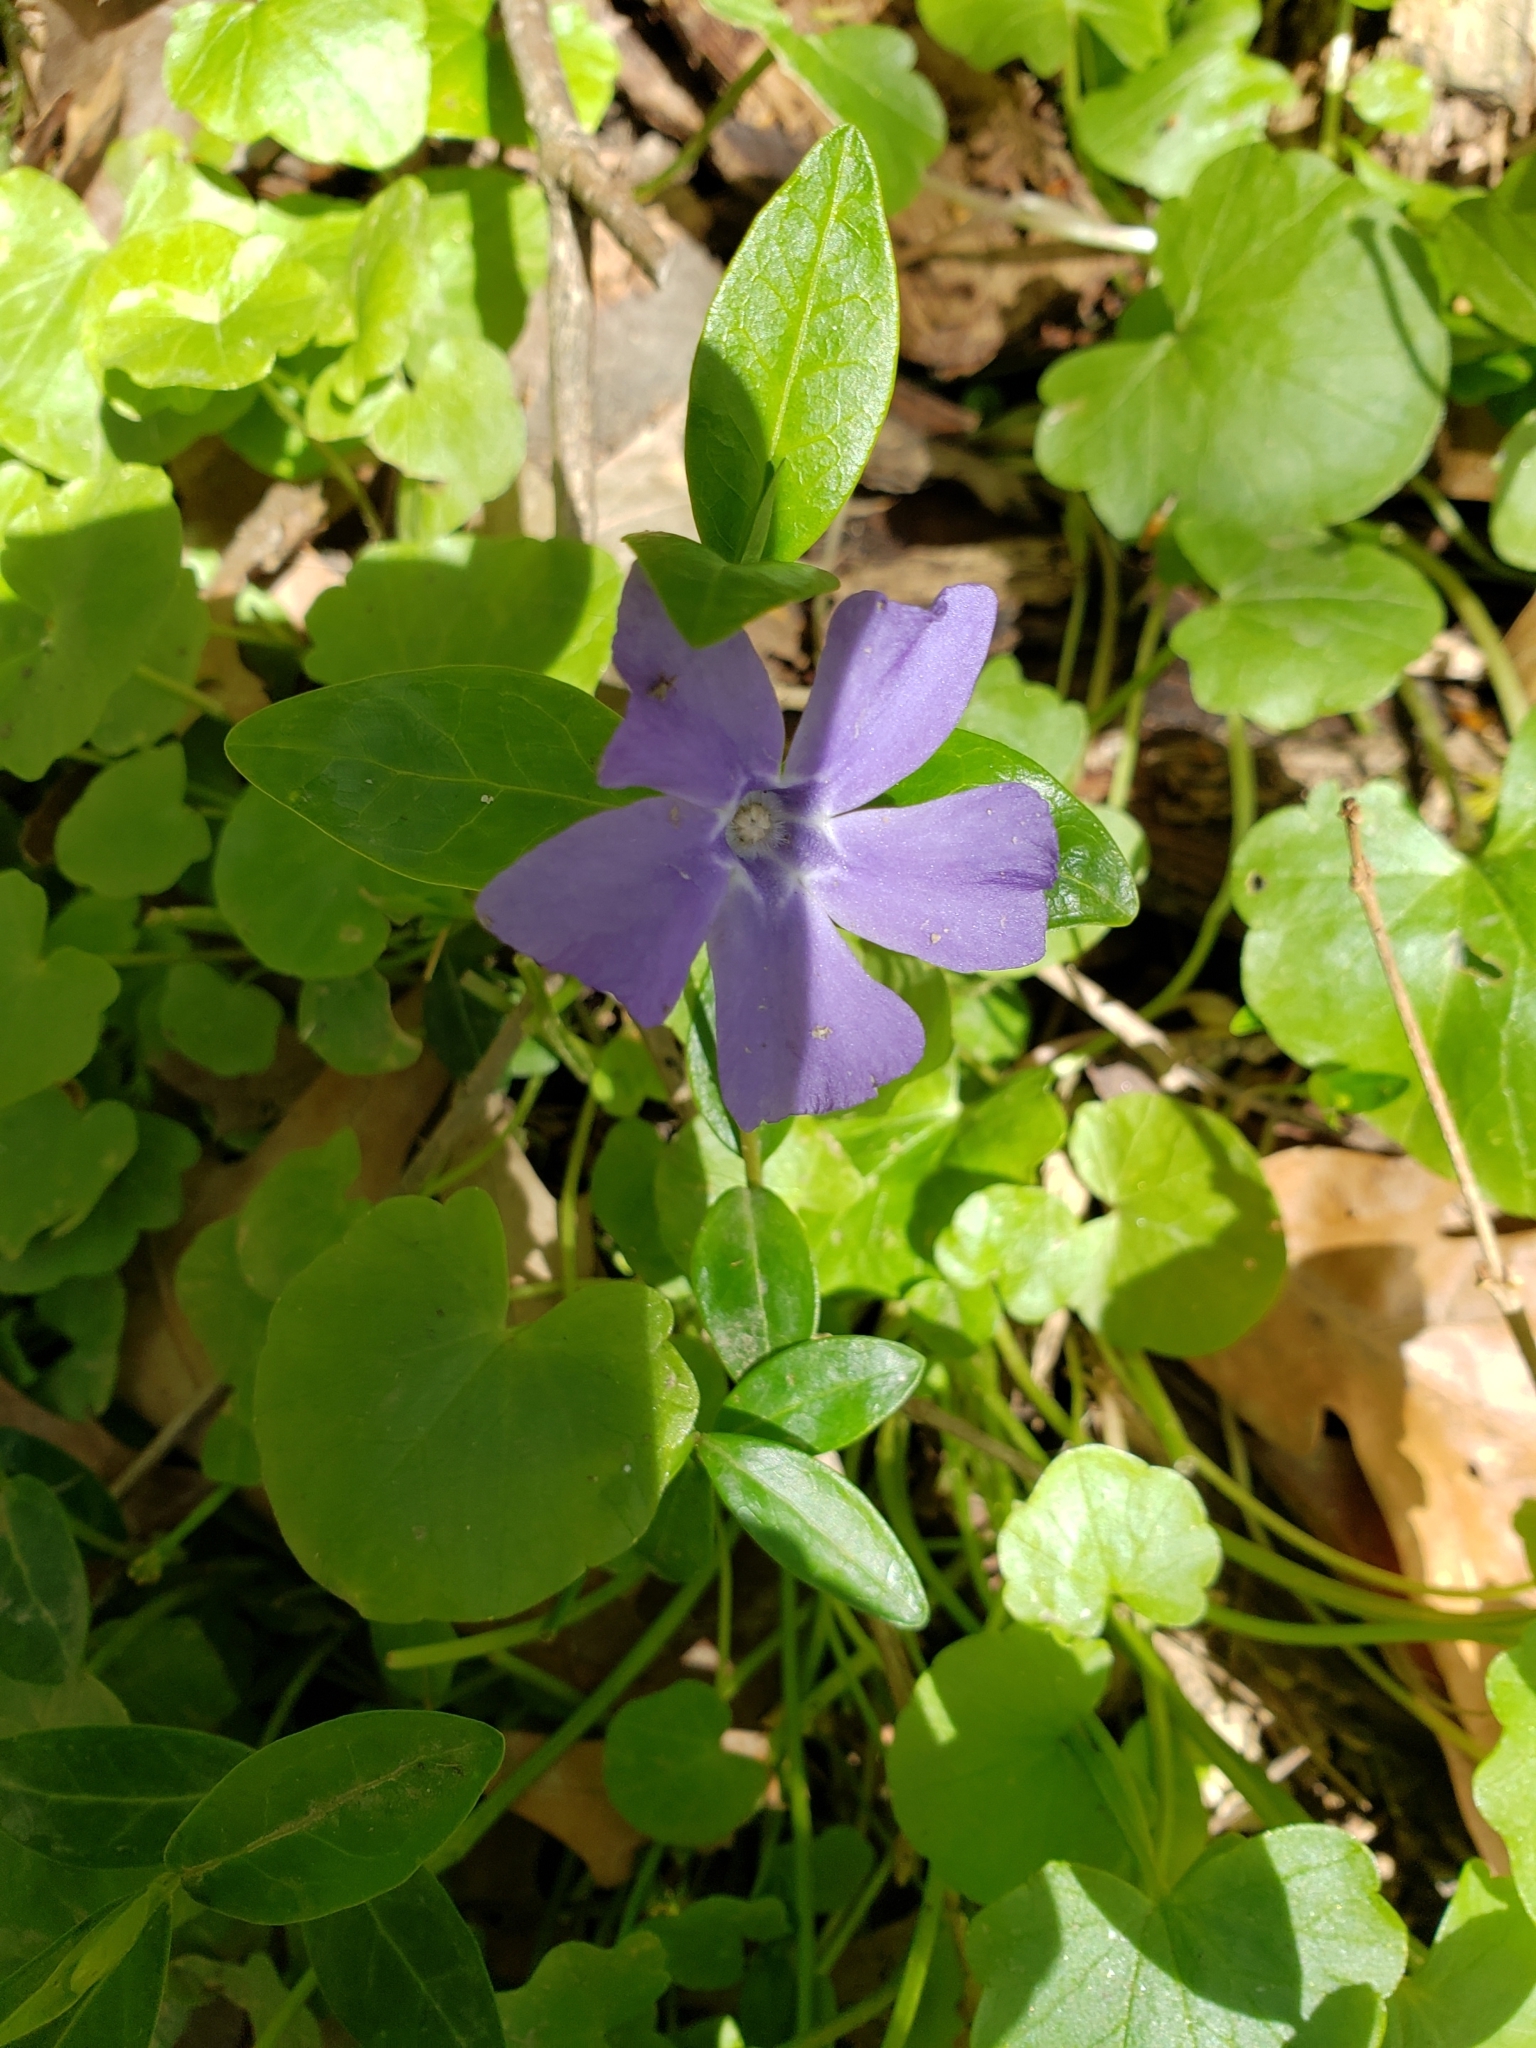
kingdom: Plantae
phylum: Tracheophyta
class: Magnoliopsida
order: Gentianales
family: Apocynaceae
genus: Vinca
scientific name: Vinca minor
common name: Lesser periwinkle
